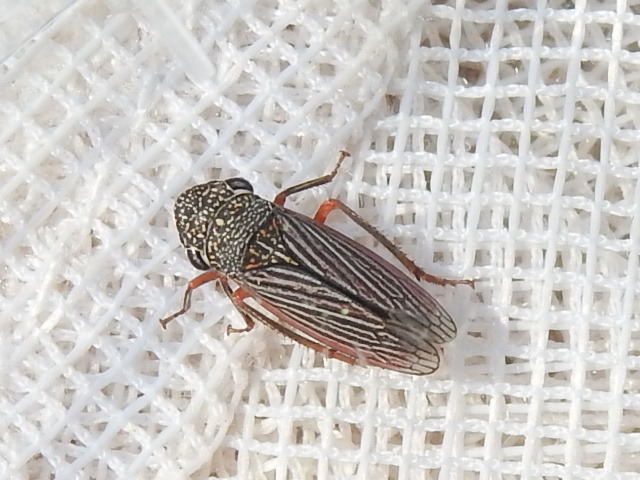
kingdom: Animalia
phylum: Arthropoda
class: Insecta
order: Hemiptera
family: Cicadellidae
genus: Cuerna
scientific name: Cuerna costalis
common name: Lateral-lined sharpshooter
